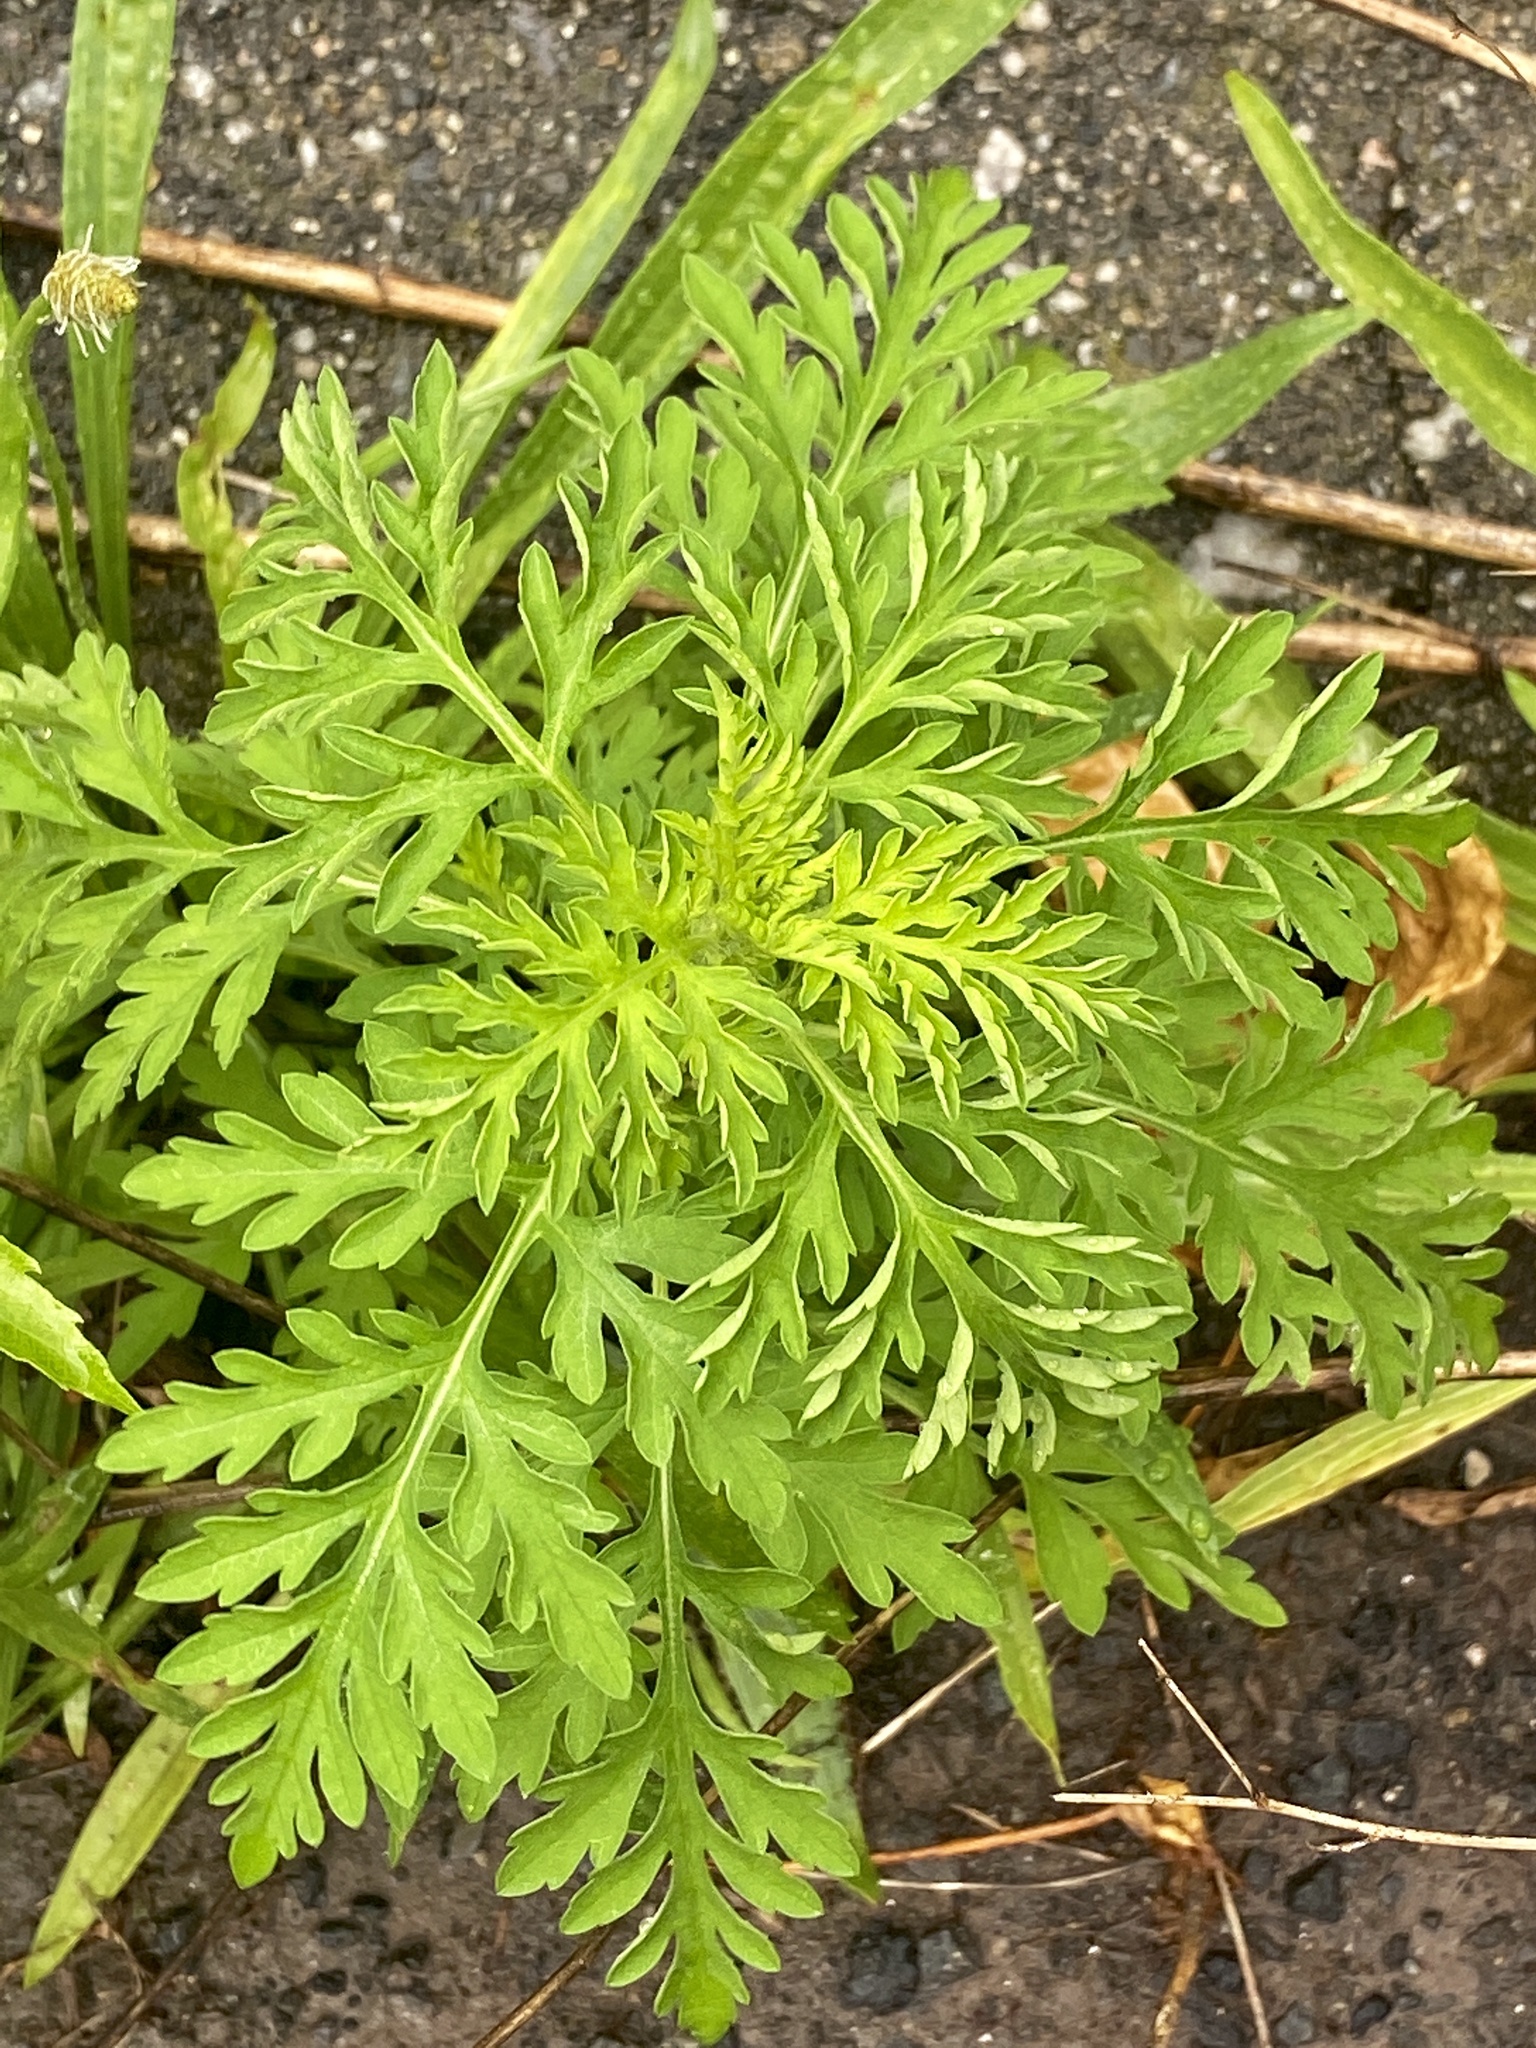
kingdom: Plantae
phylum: Tracheophyta
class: Magnoliopsida
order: Asterales
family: Asteraceae
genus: Ambrosia
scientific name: Ambrosia artemisiifolia
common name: Annual ragweed
